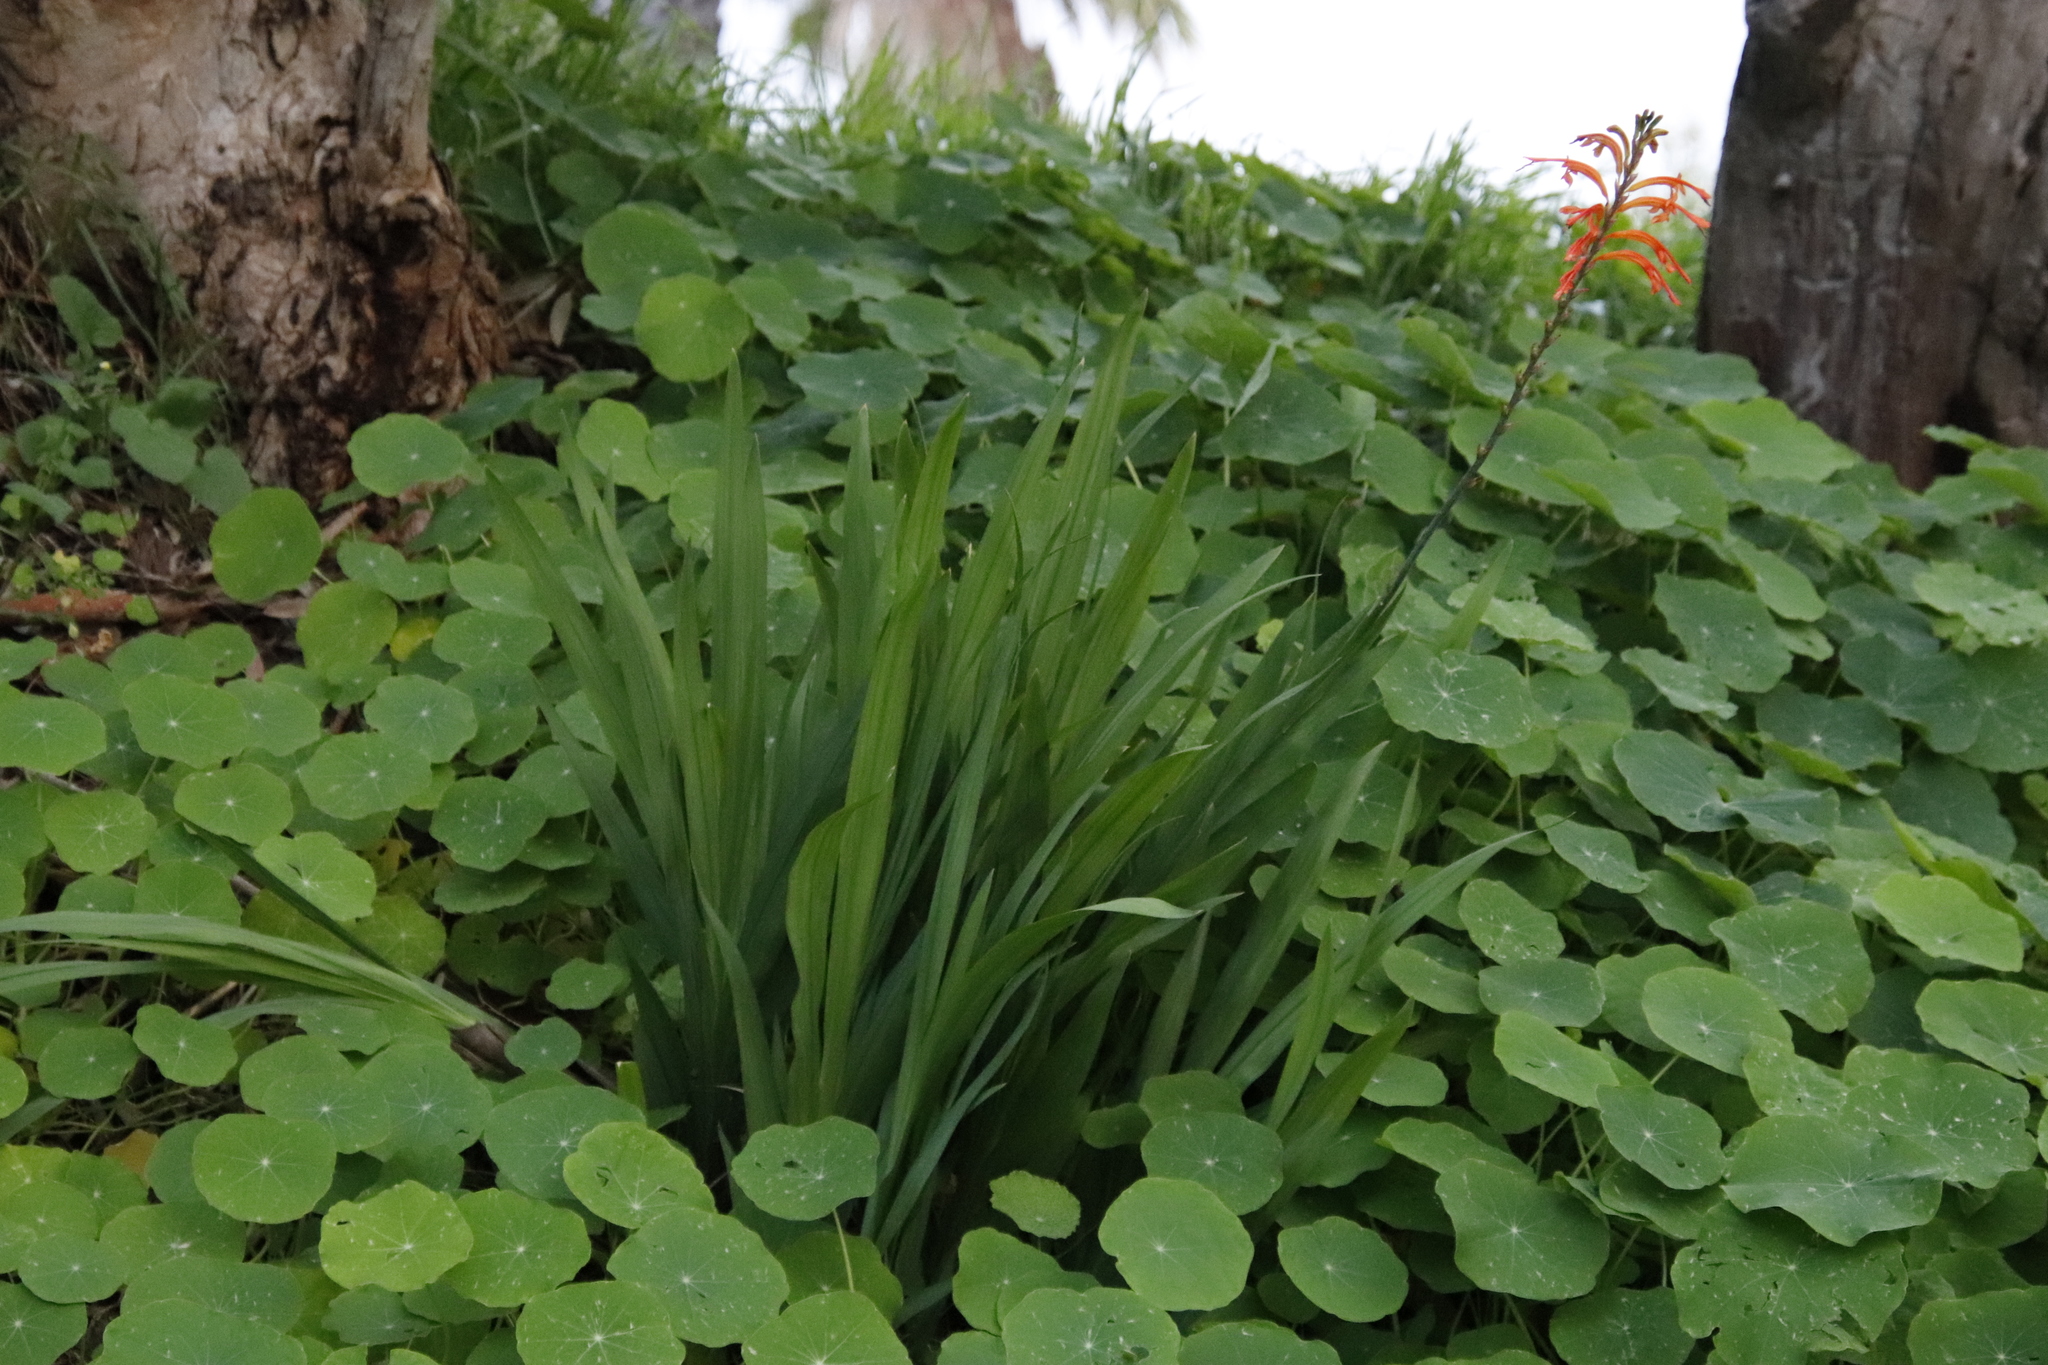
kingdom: Plantae
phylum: Tracheophyta
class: Liliopsida
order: Asparagales
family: Iridaceae
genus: Chasmanthe
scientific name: Chasmanthe floribunda
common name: African cornflag
